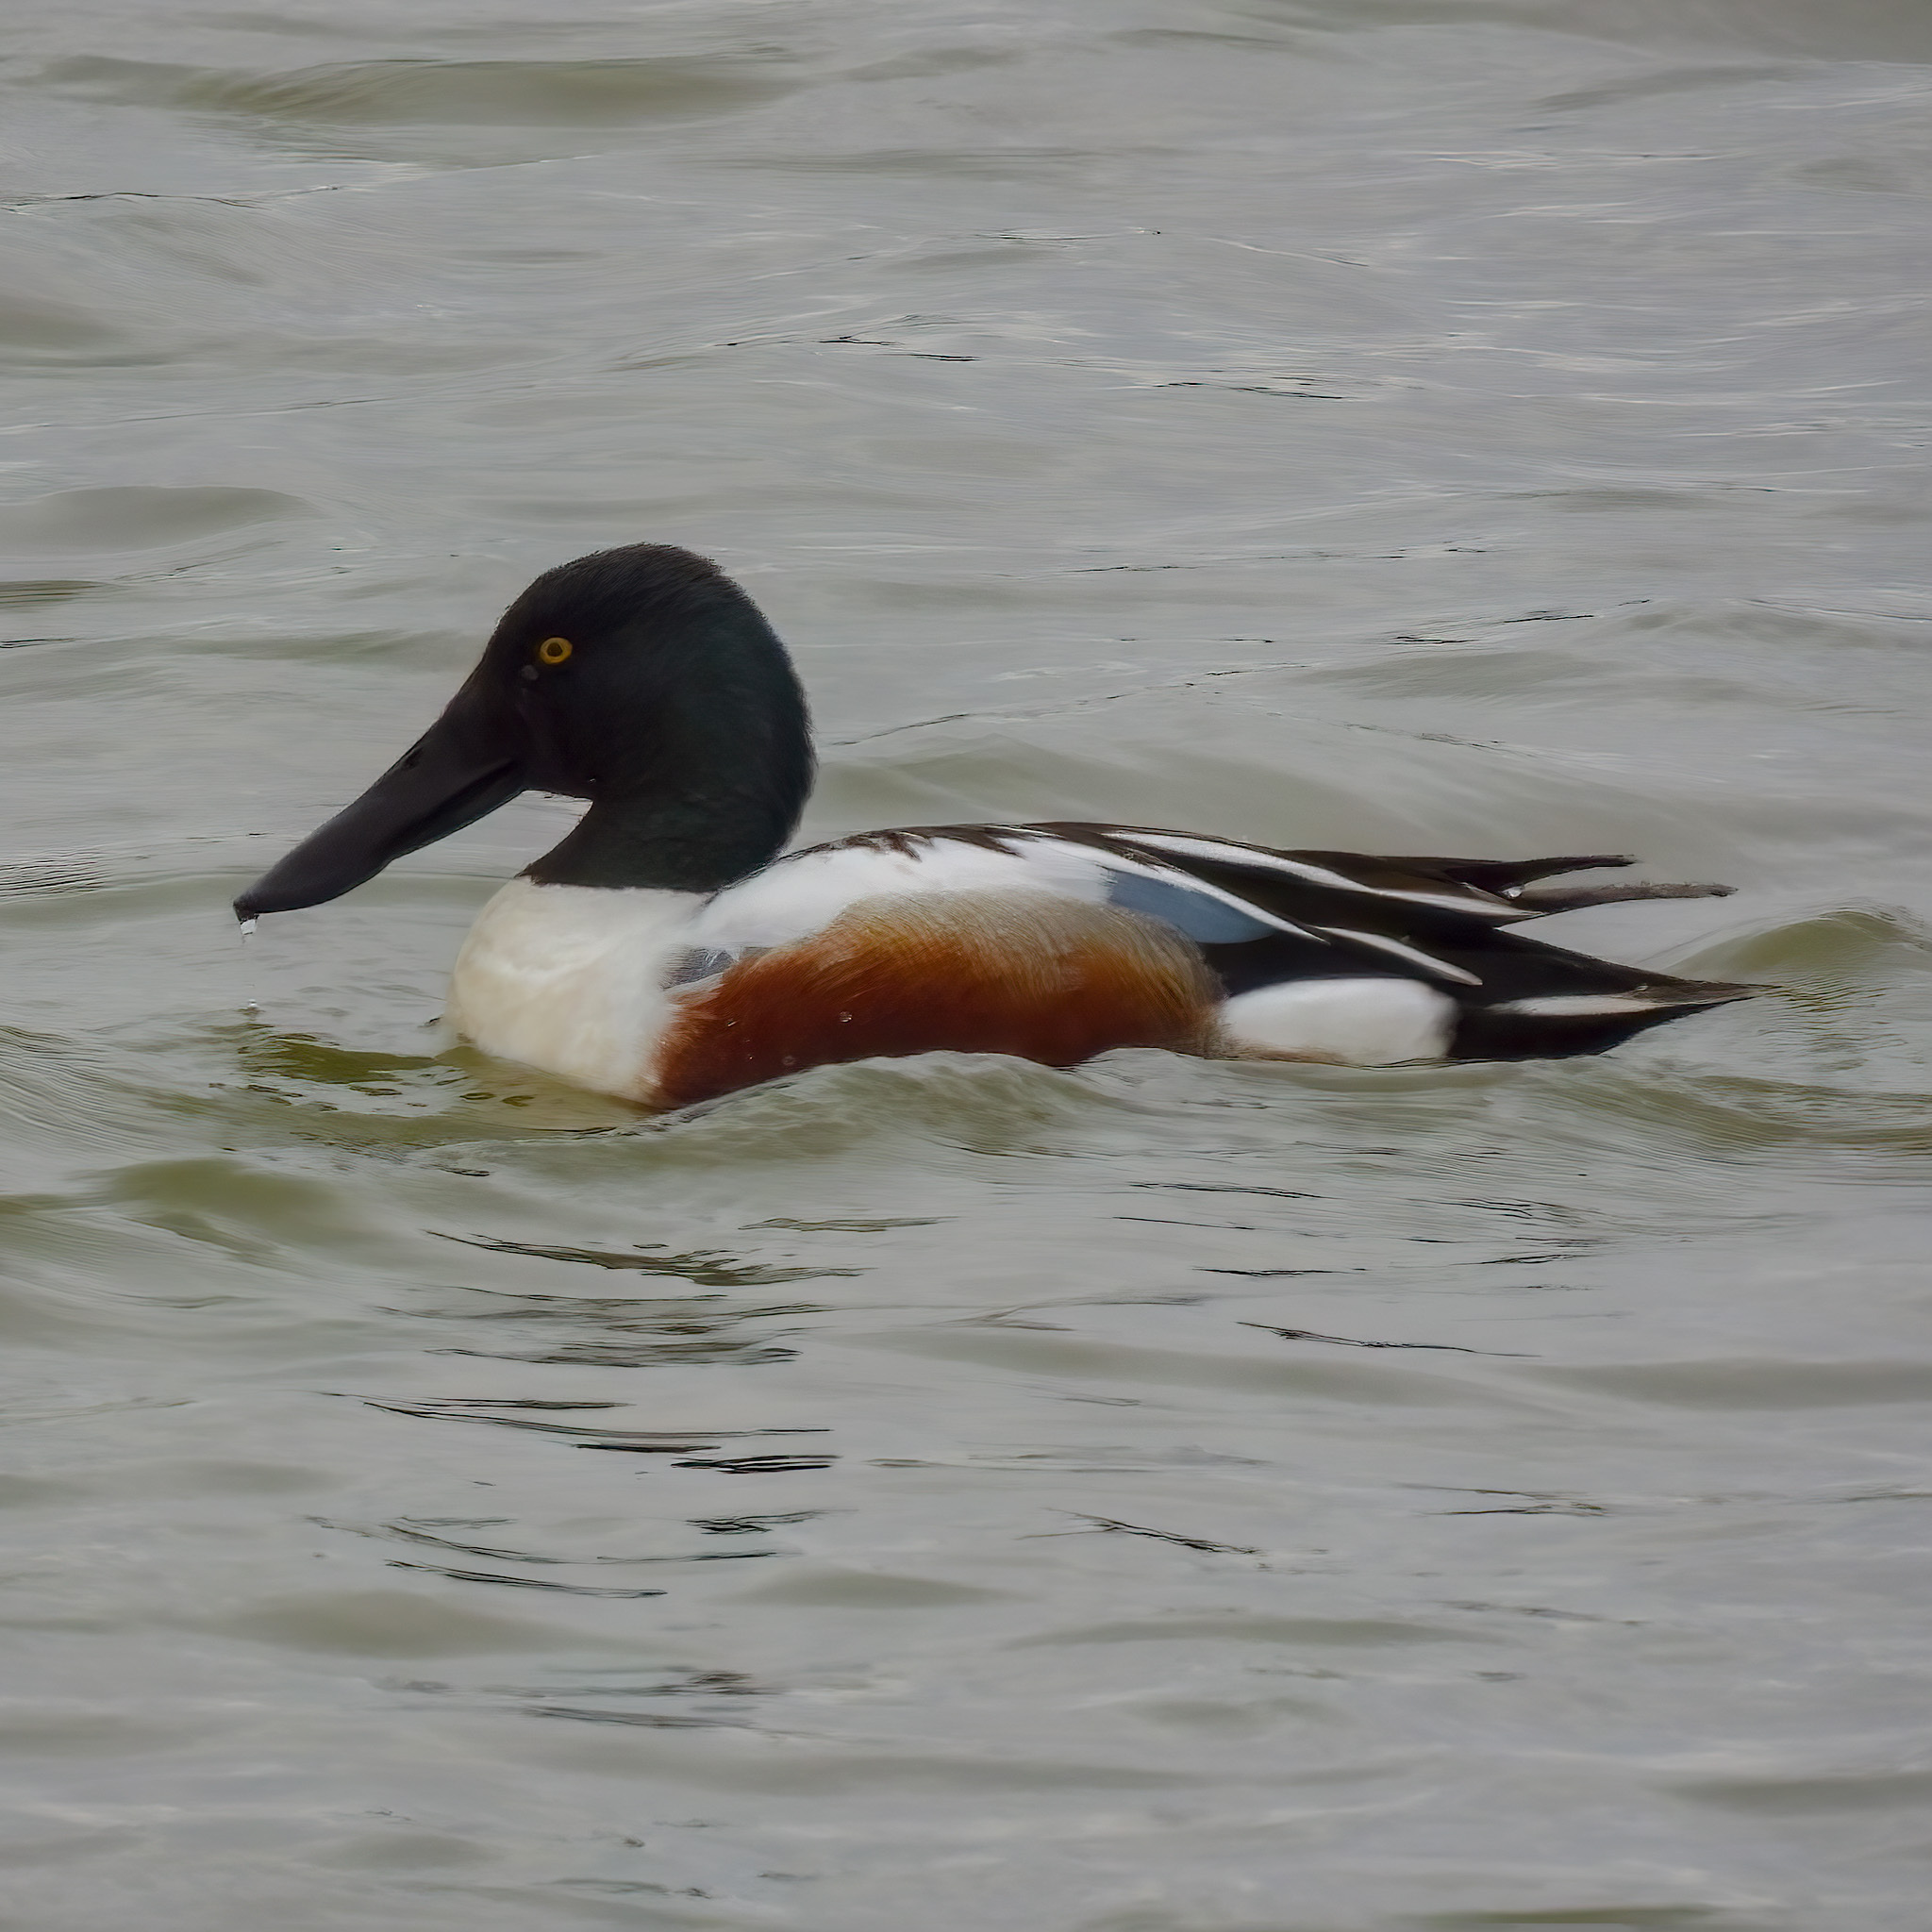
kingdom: Animalia
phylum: Chordata
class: Aves
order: Anseriformes
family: Anatidae
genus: Spatula
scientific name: Spatula clypeata
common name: Northern shoveler
